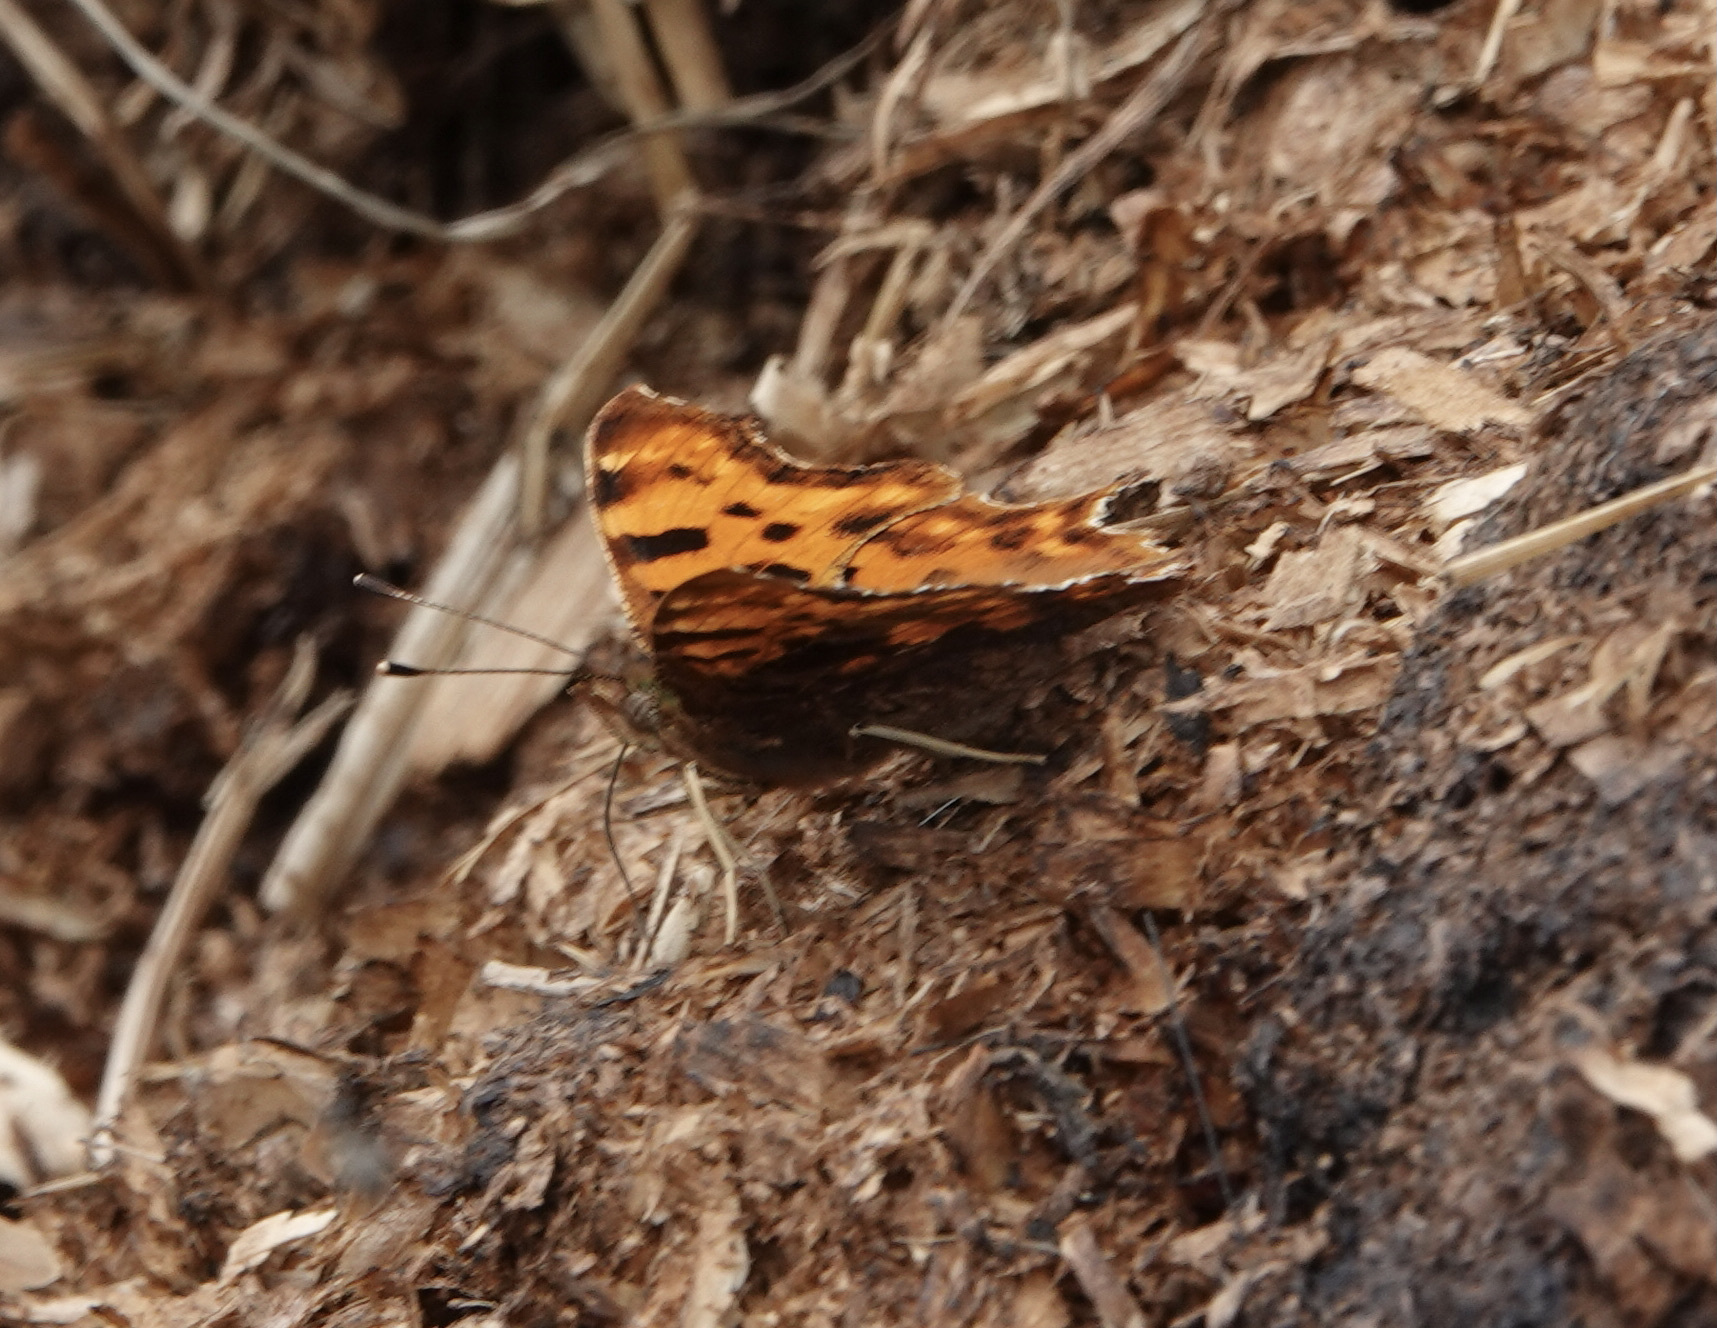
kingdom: Animalia
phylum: Arthropoda
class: Insecta
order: Lepidoptera
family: Nymphalidae
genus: Polygonia
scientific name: Polygonia c-album
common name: Comma
